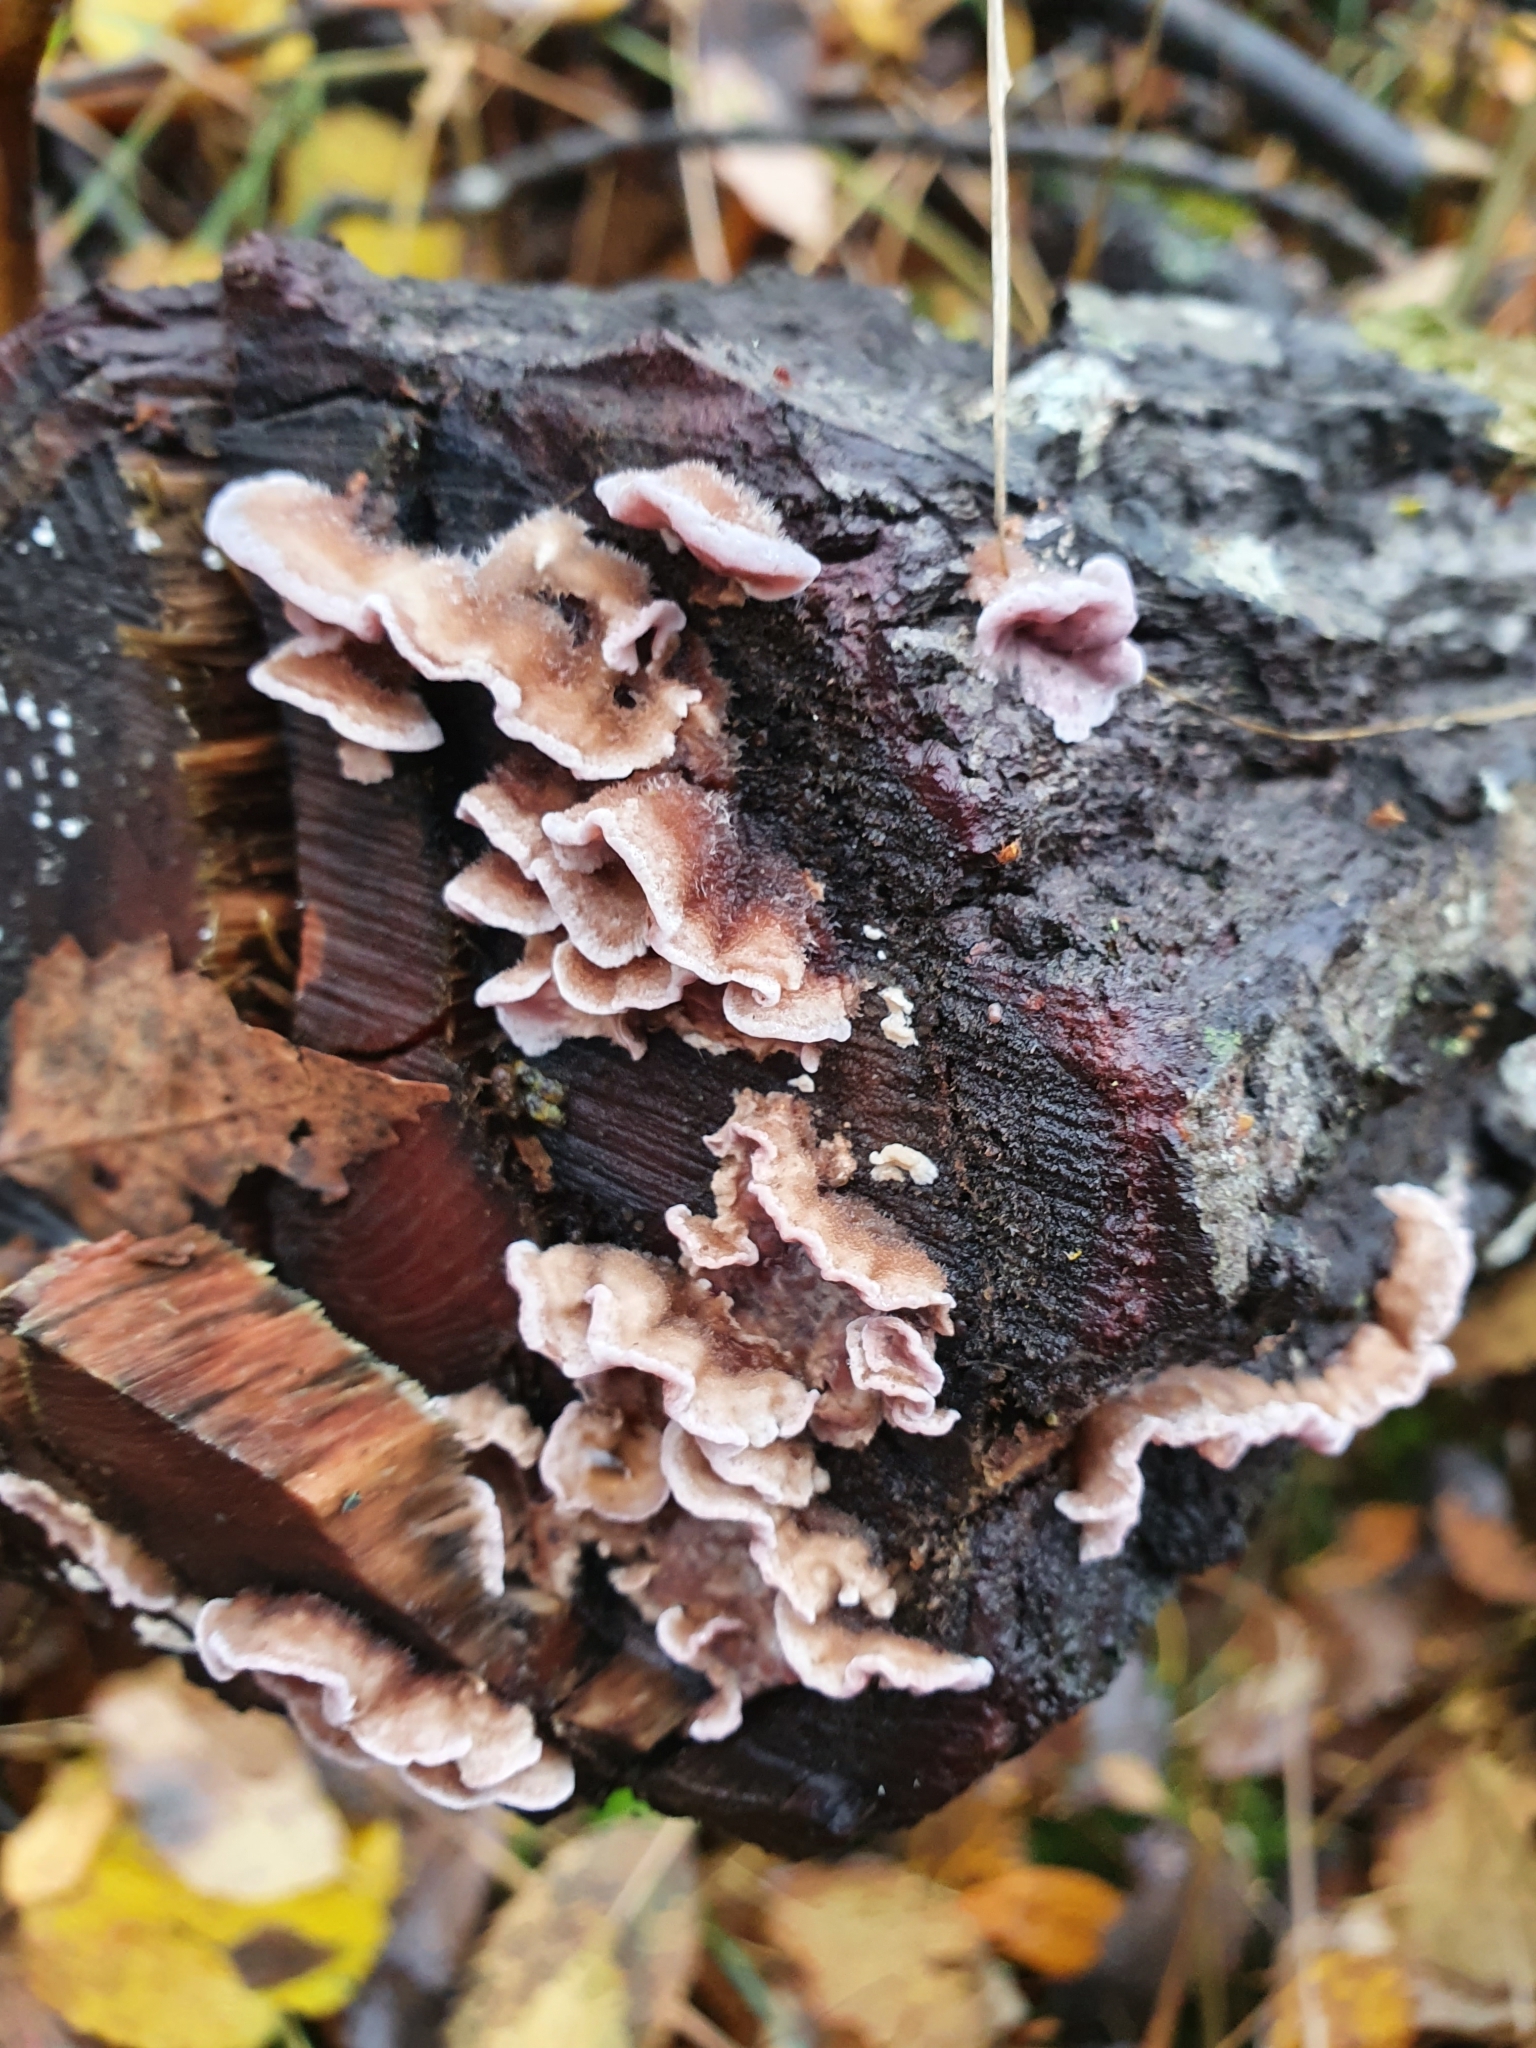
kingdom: Fungi
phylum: Basidiomycota
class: Agaricomycetes
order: Agaricales
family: Cyphellaceae
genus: Chondrostereum
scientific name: Chondrostereum purpureum
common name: Silver leaf disease
